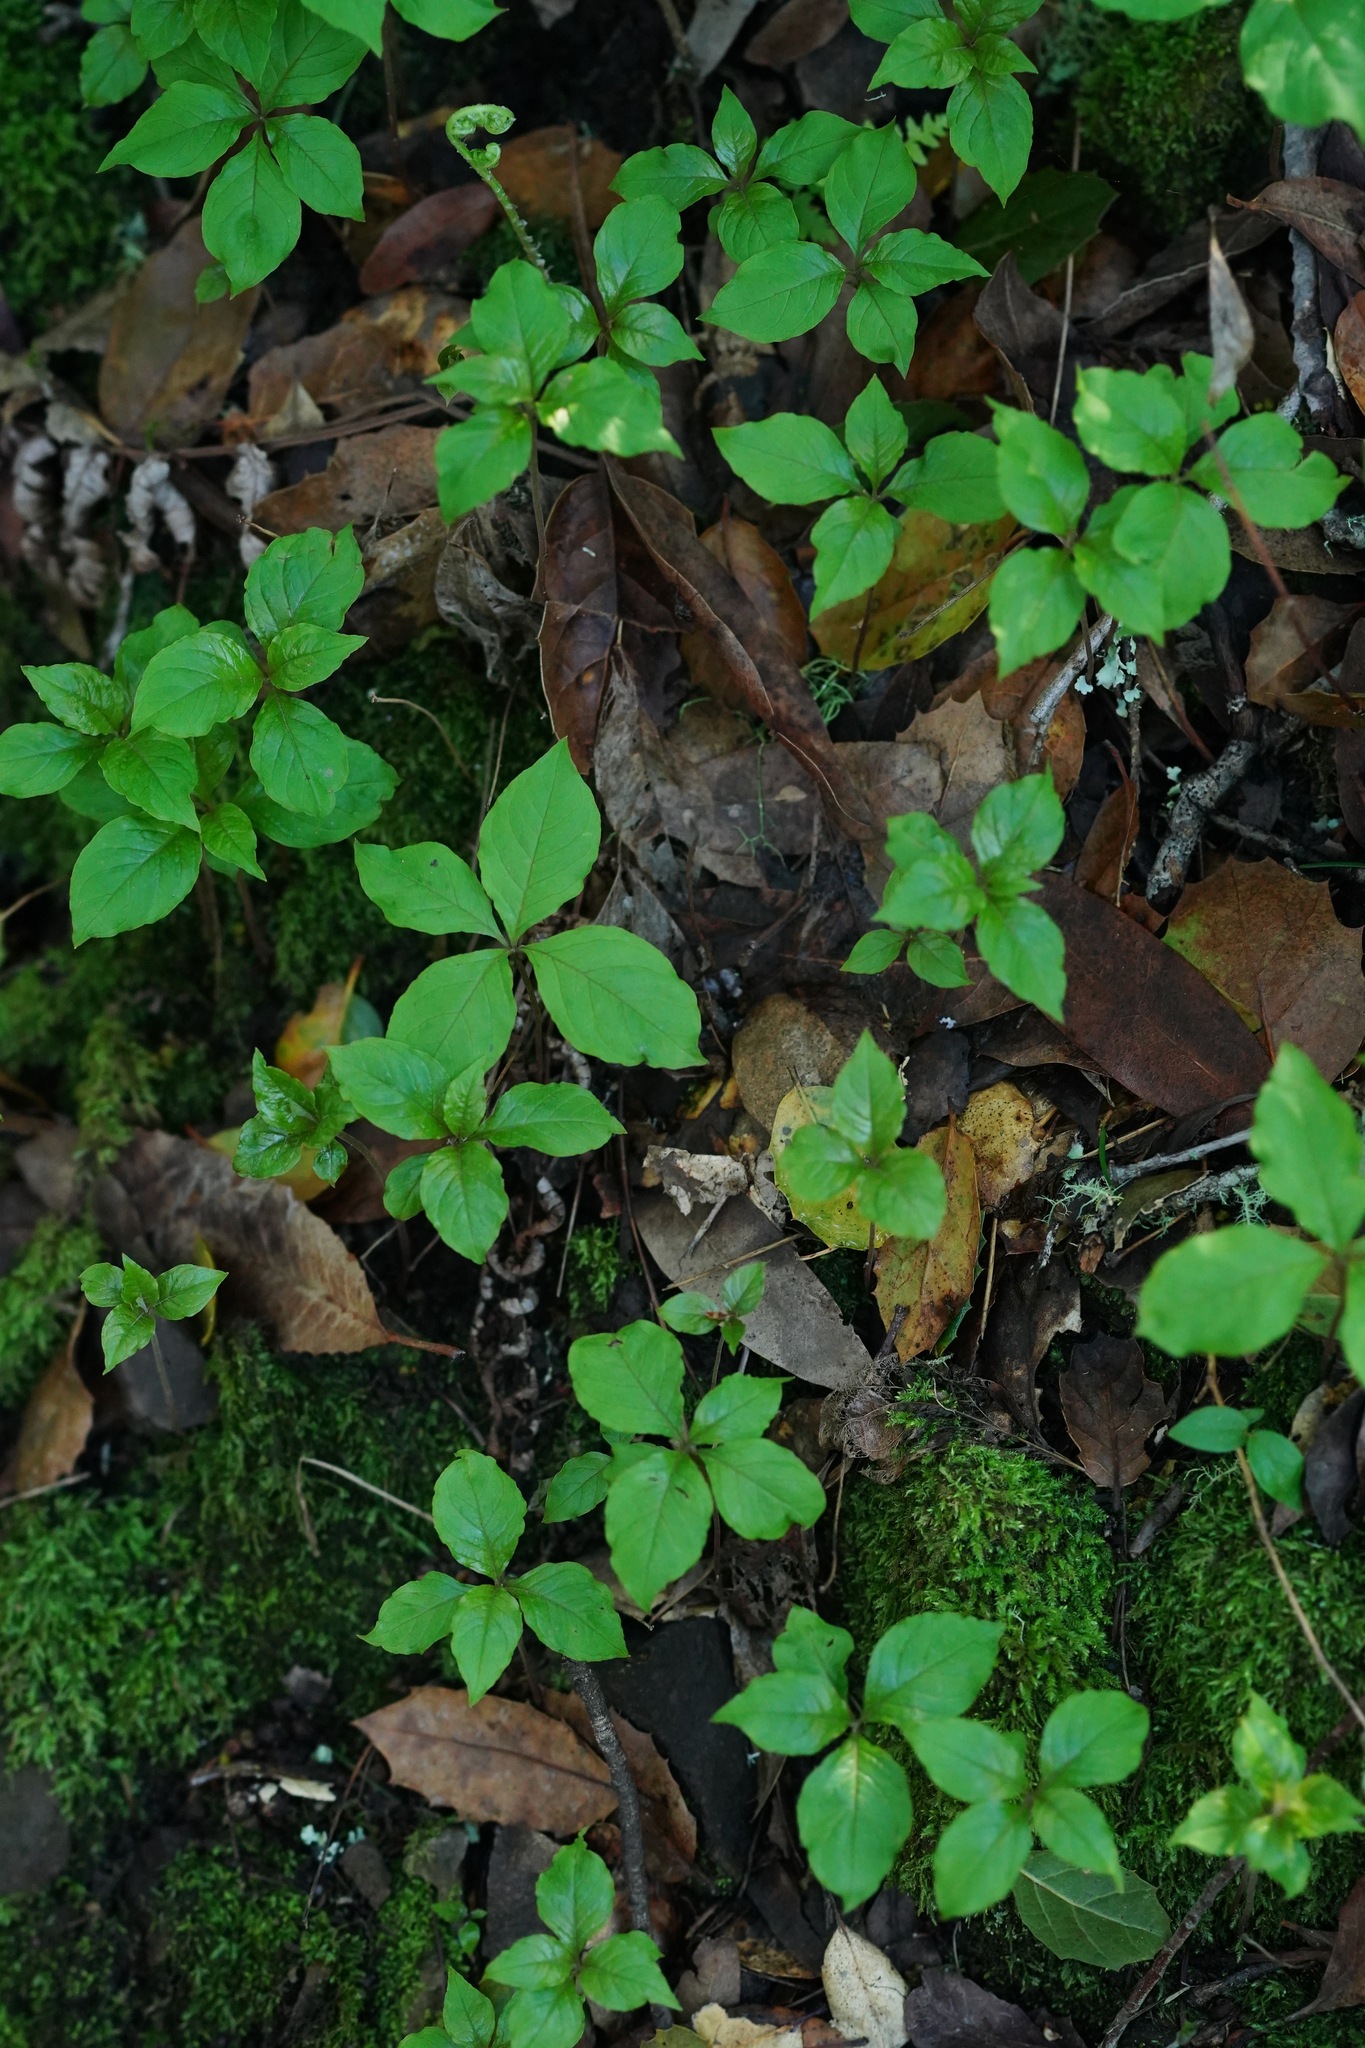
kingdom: Plantae
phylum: Tracheophyta
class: Magnoliopsida
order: Ericales
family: Primulaceae
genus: Lysimachia
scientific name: Lysimachia latifolia
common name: Pacific starflower
